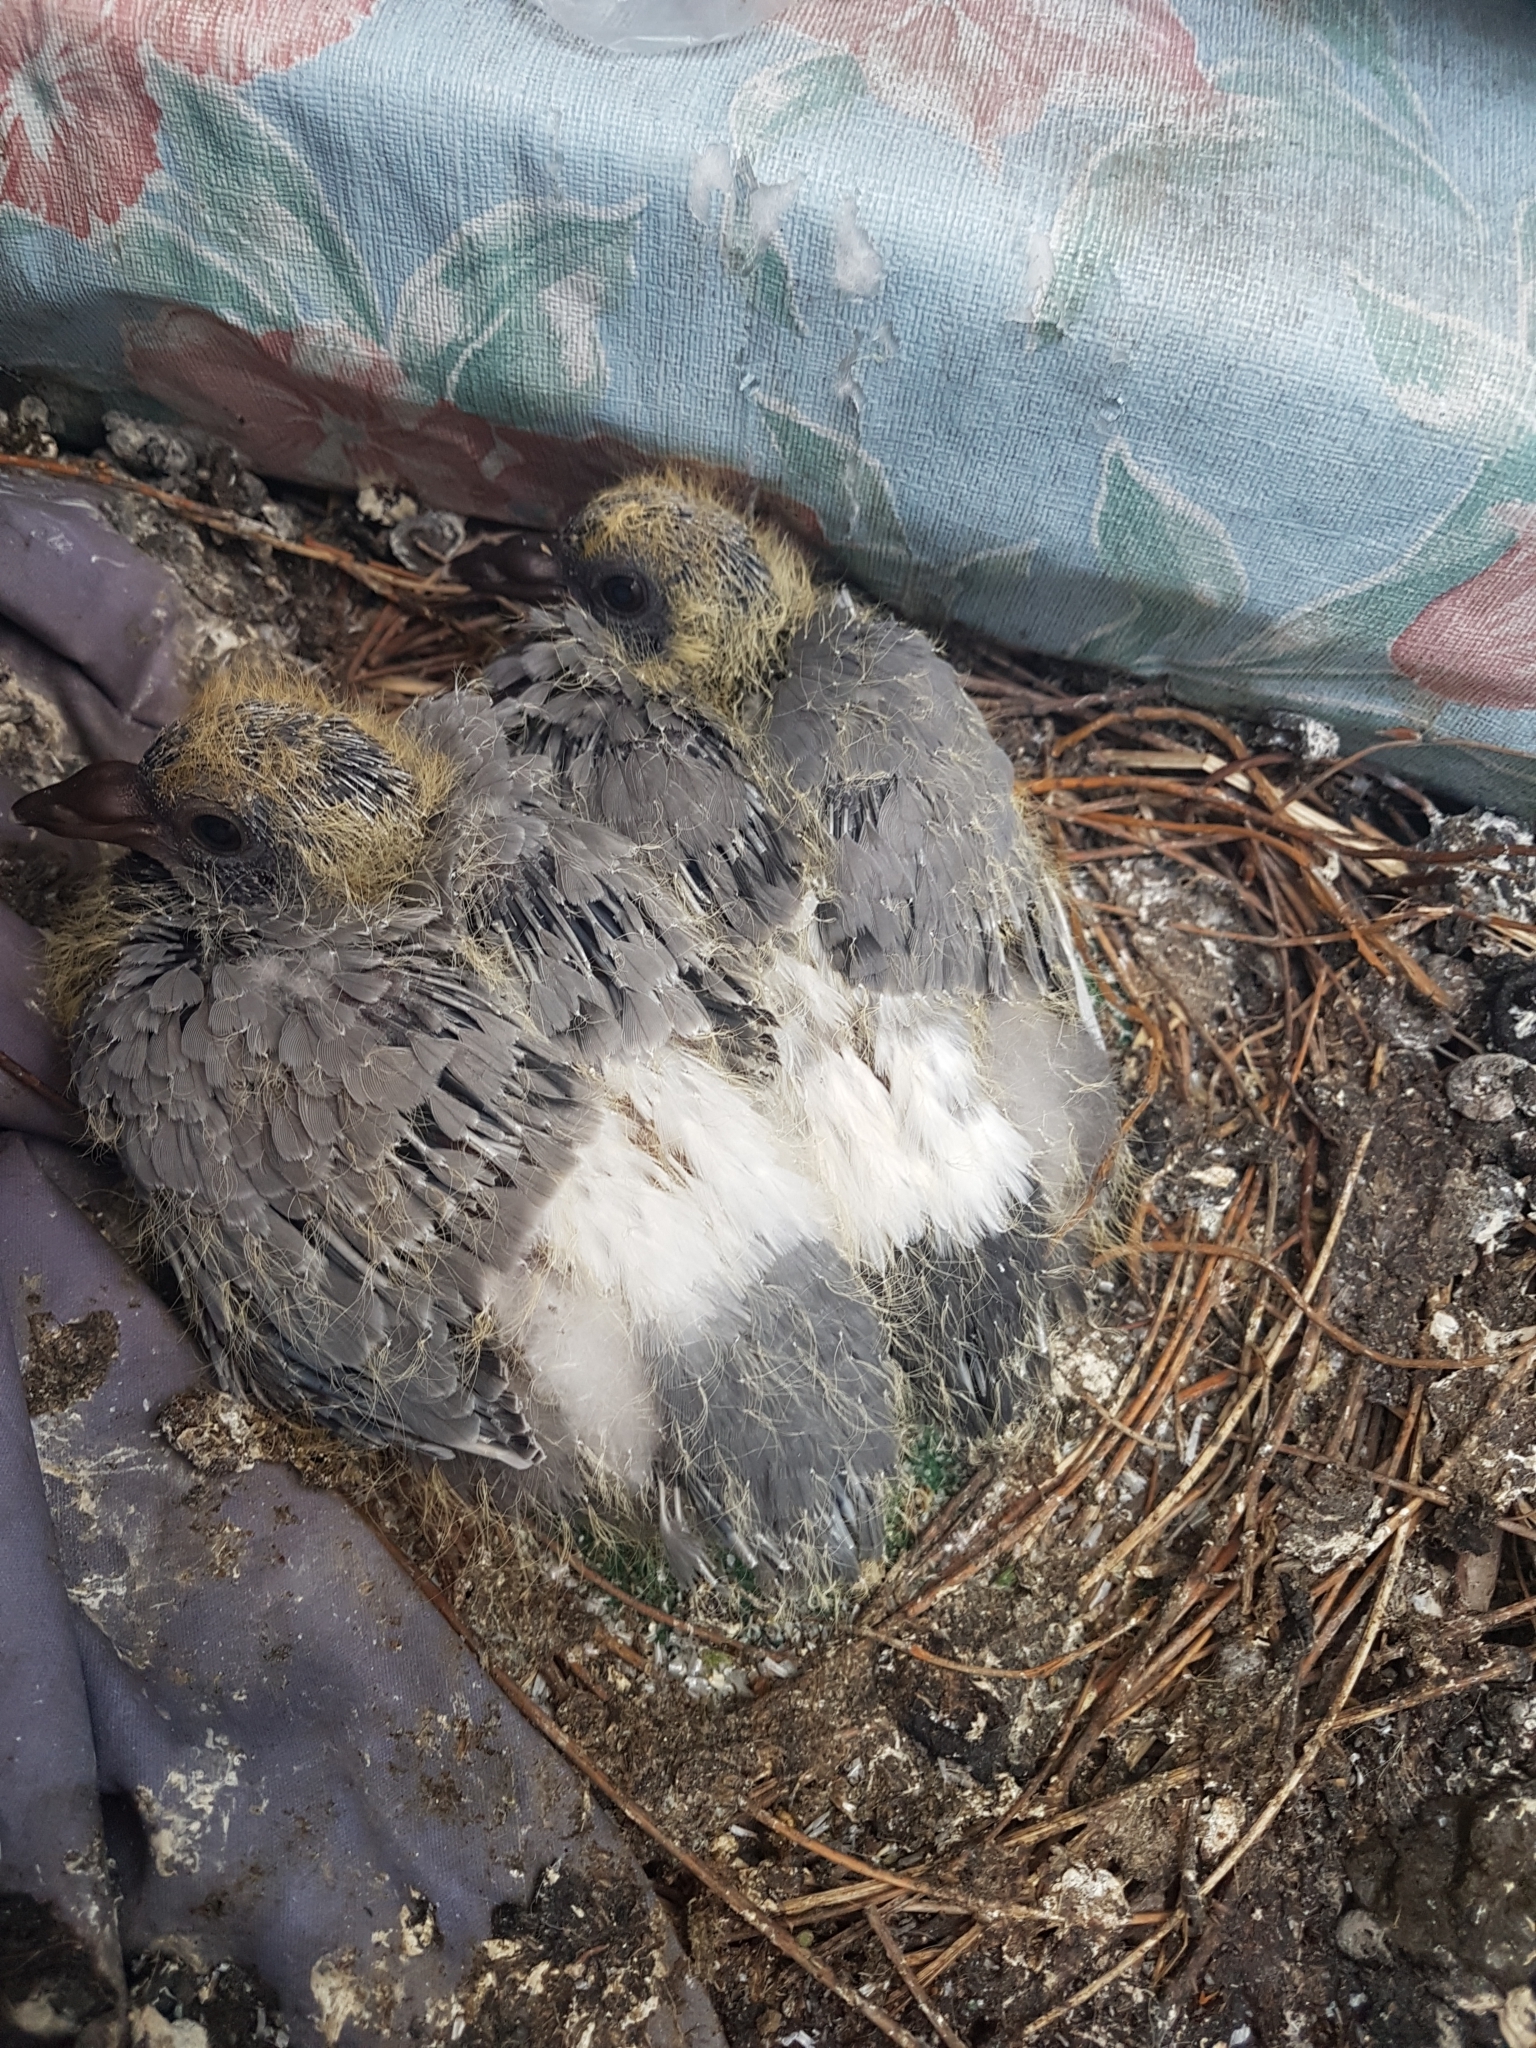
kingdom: Animalia
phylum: Chordata
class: Aves
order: Columbiformes
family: Columbidae
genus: Columba
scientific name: Columba livia
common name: Rock pigeon
